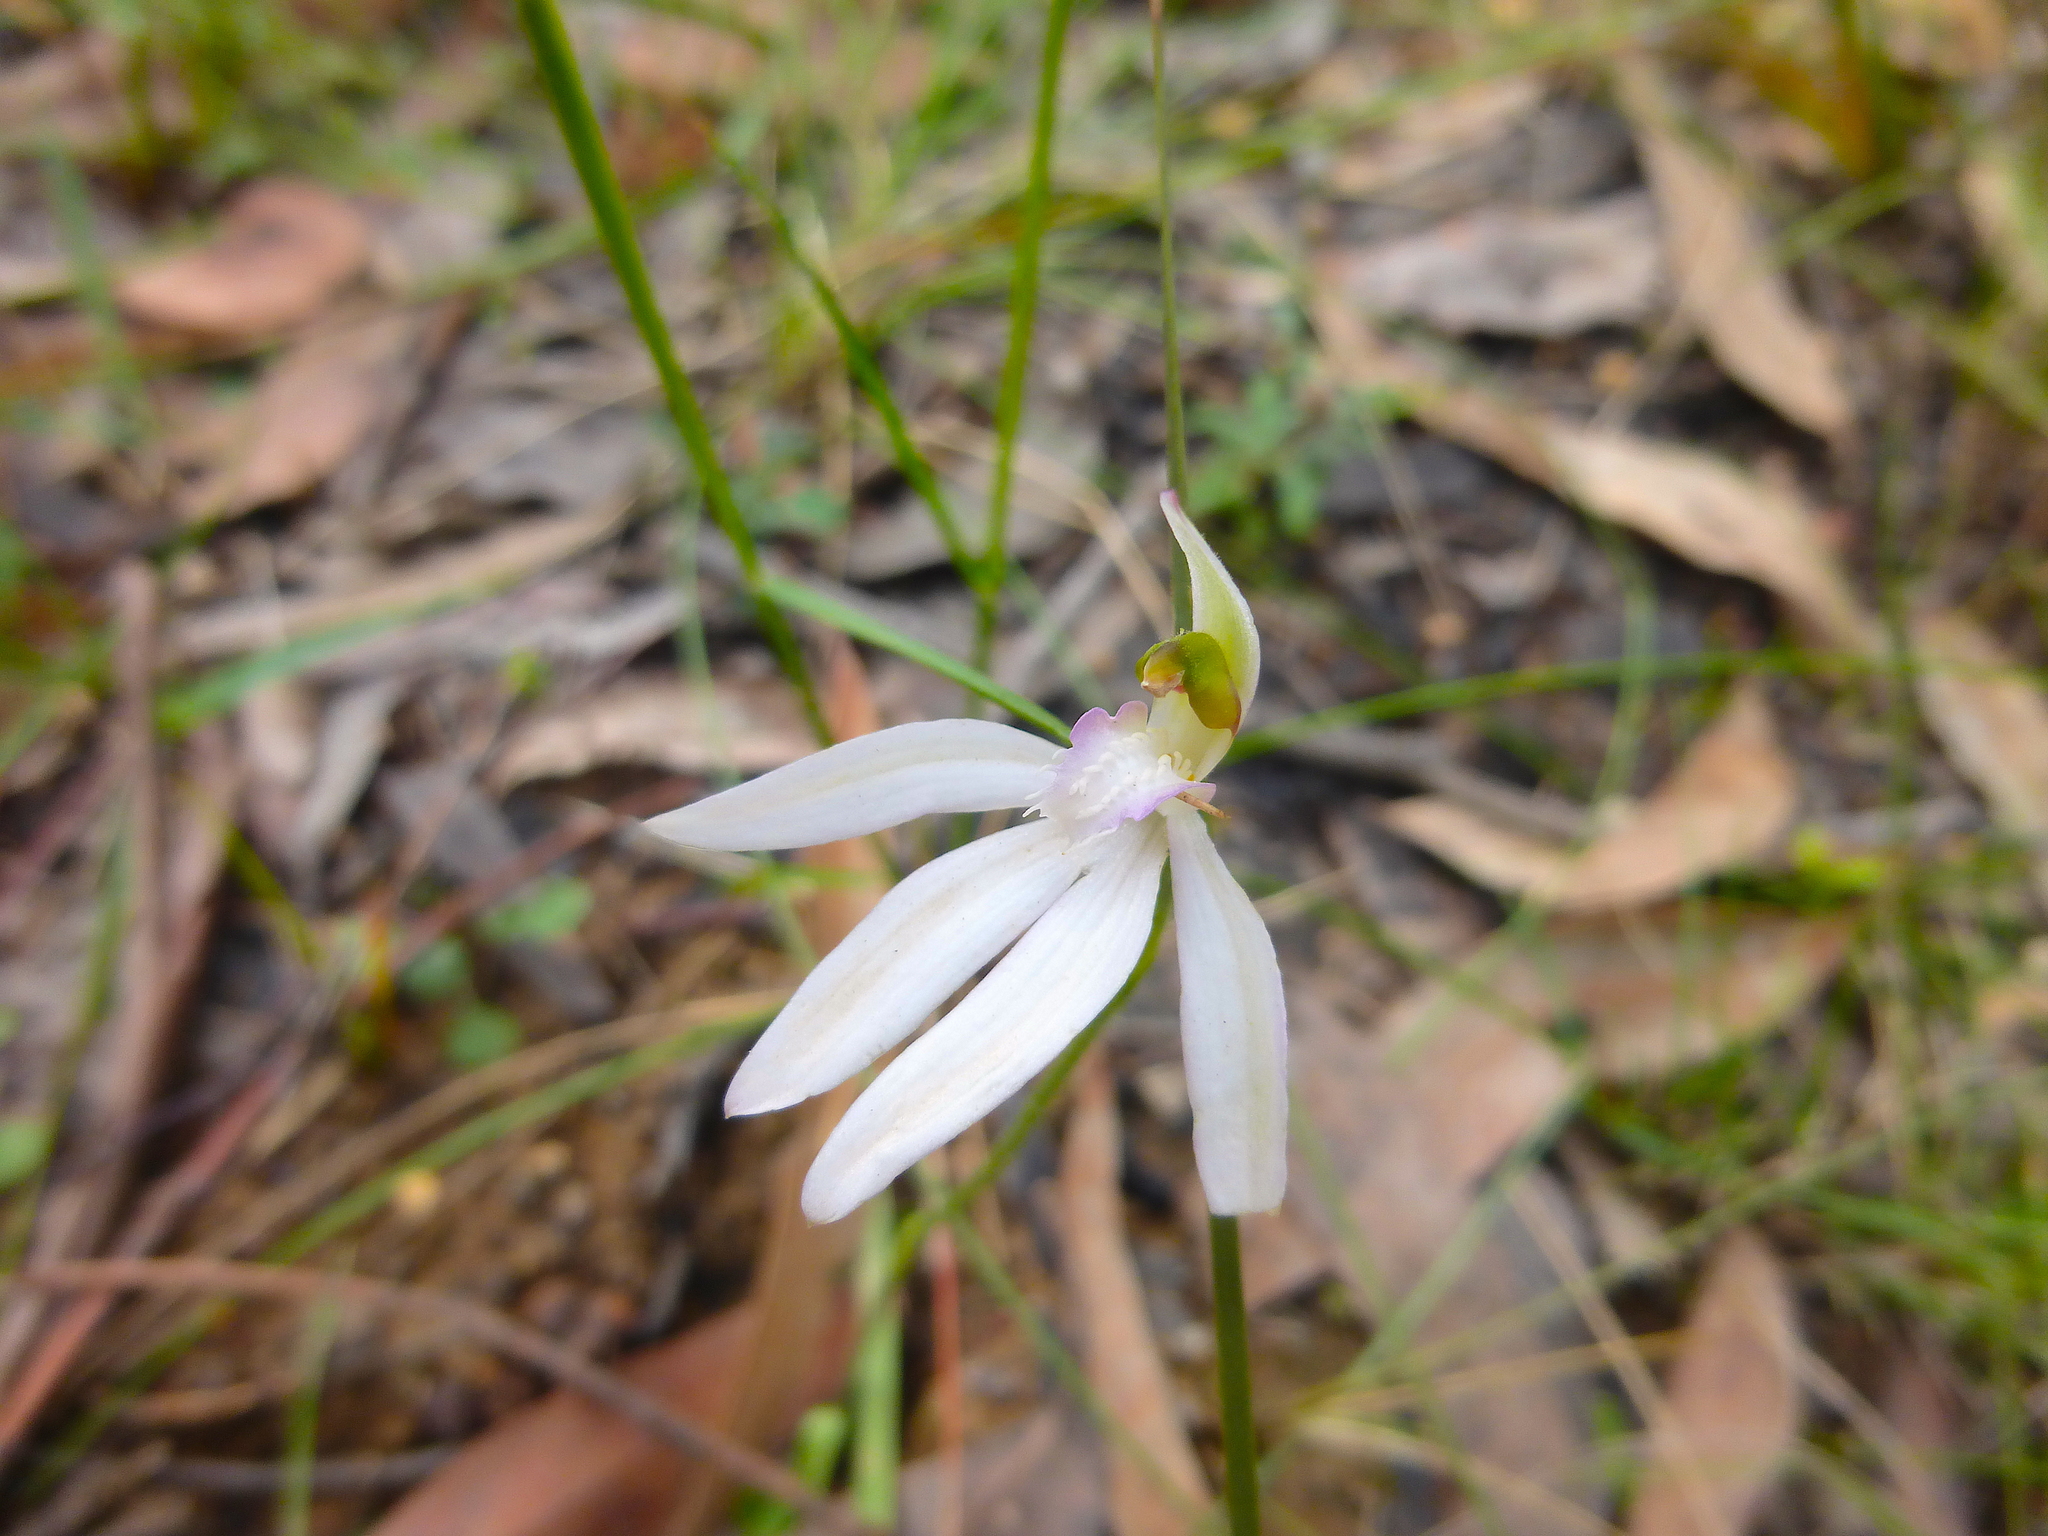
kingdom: Plantae
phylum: Tracheophyta
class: Liliopsida
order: Asparagales
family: Orchidaceae
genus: Caladenia
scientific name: Caladenia catenata
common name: White caladenia
